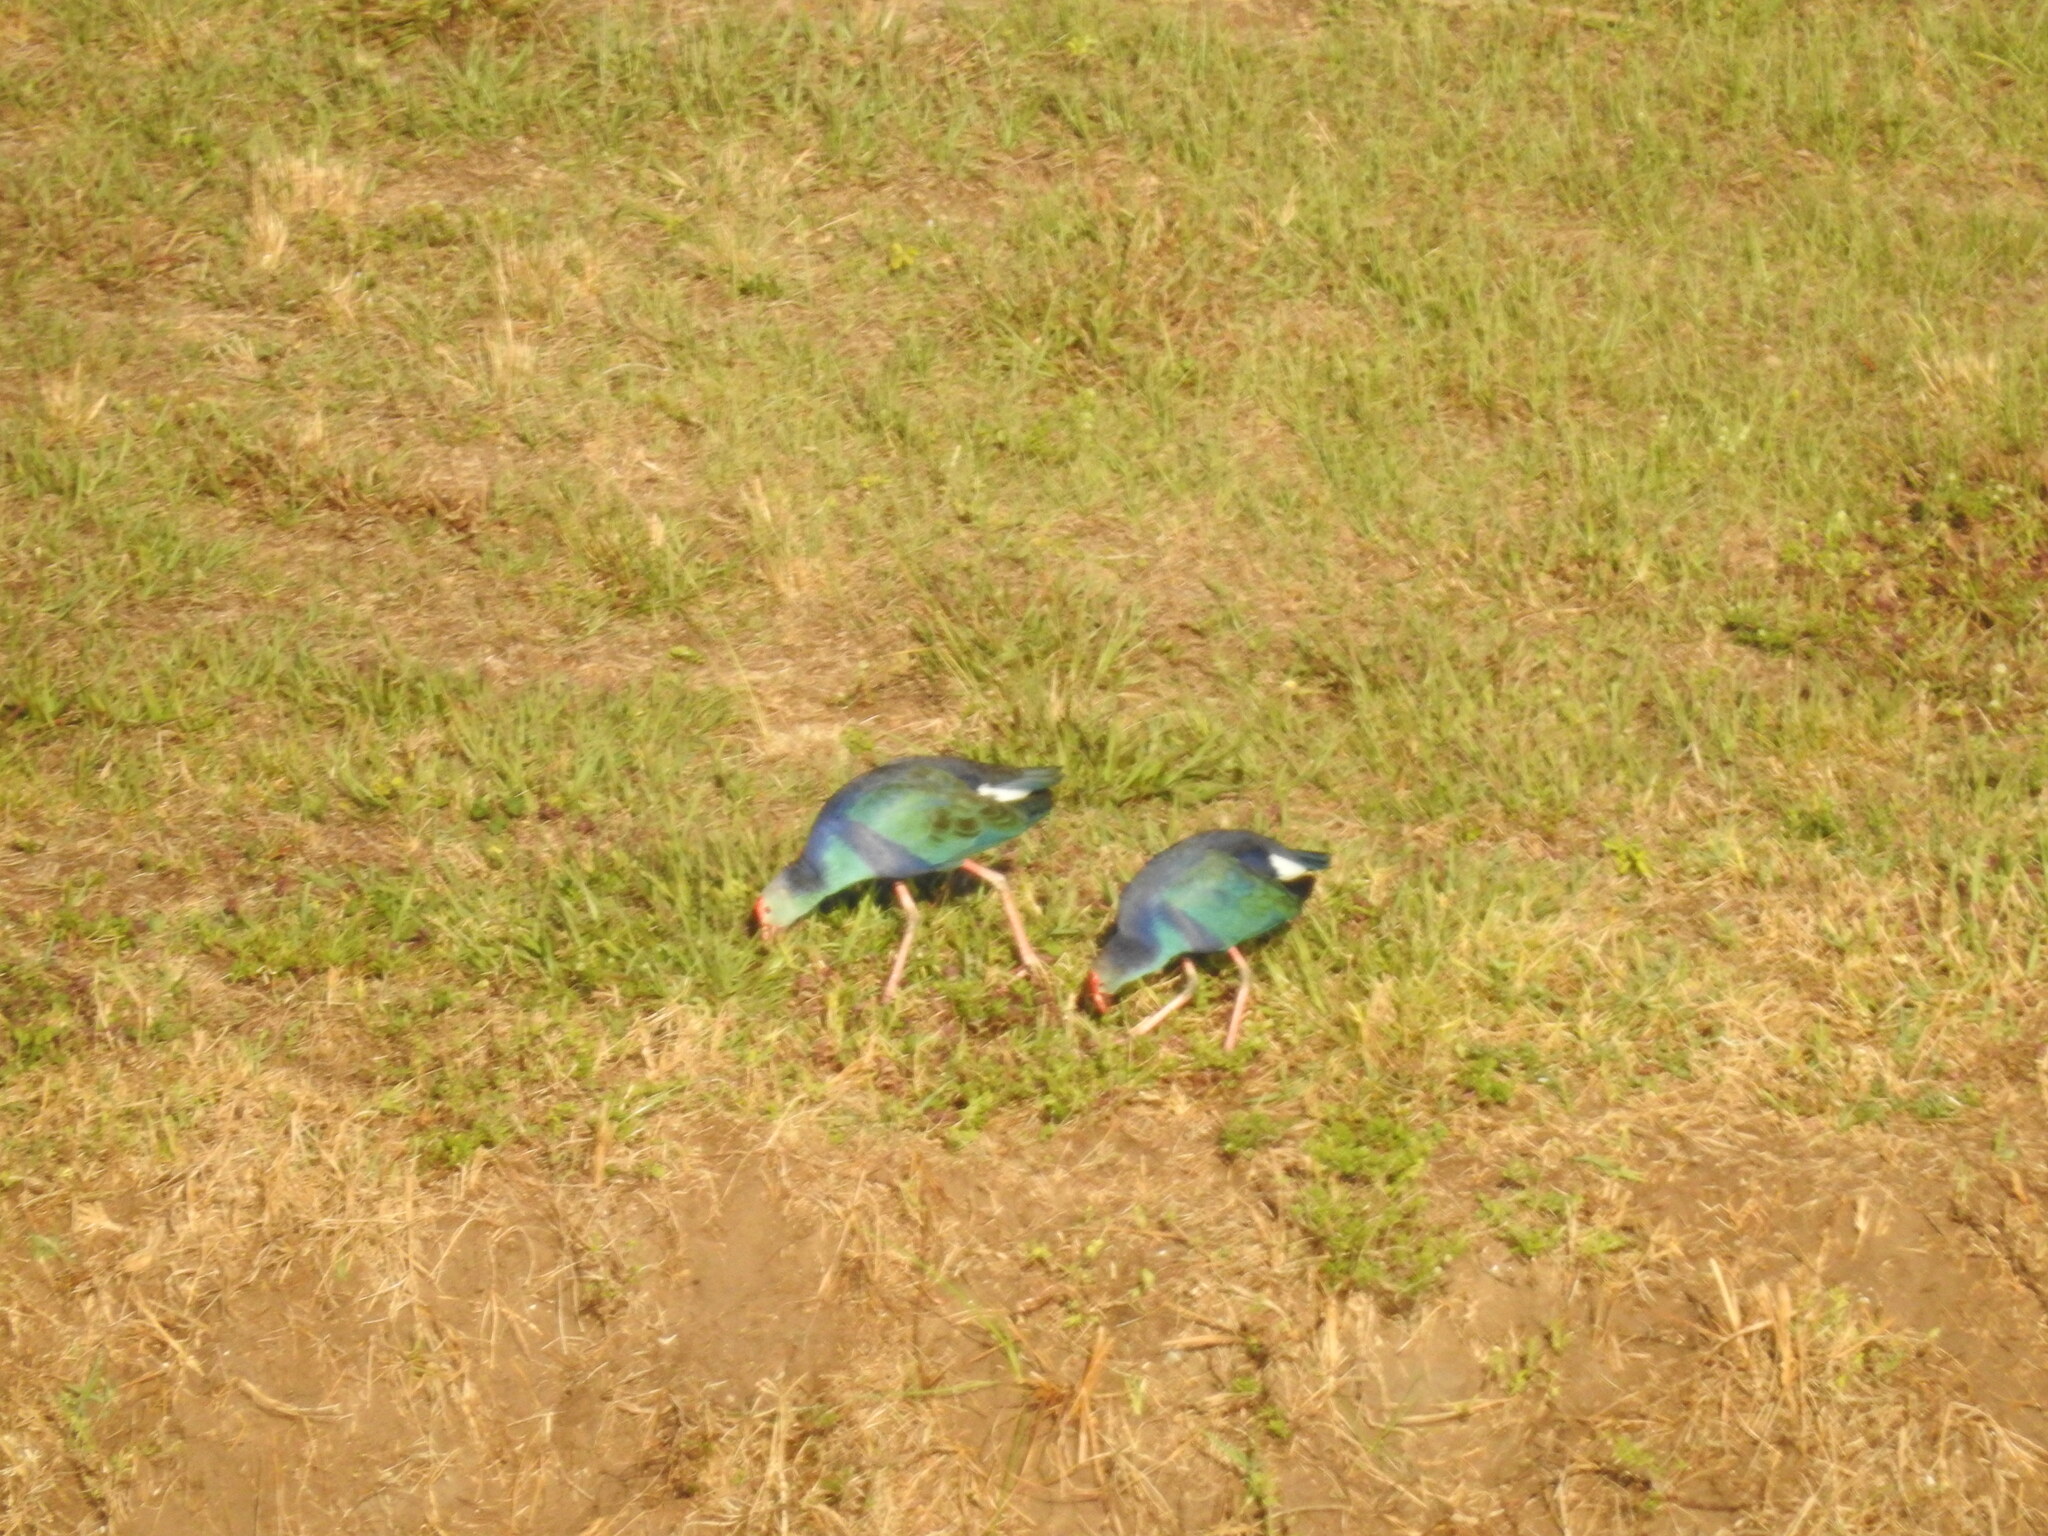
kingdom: Animalia
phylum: Chordata
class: Aves
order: Gruiformes
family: Rallidae
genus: Porphyrio
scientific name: Porphyrio porphyrio
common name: Purple swamphen
